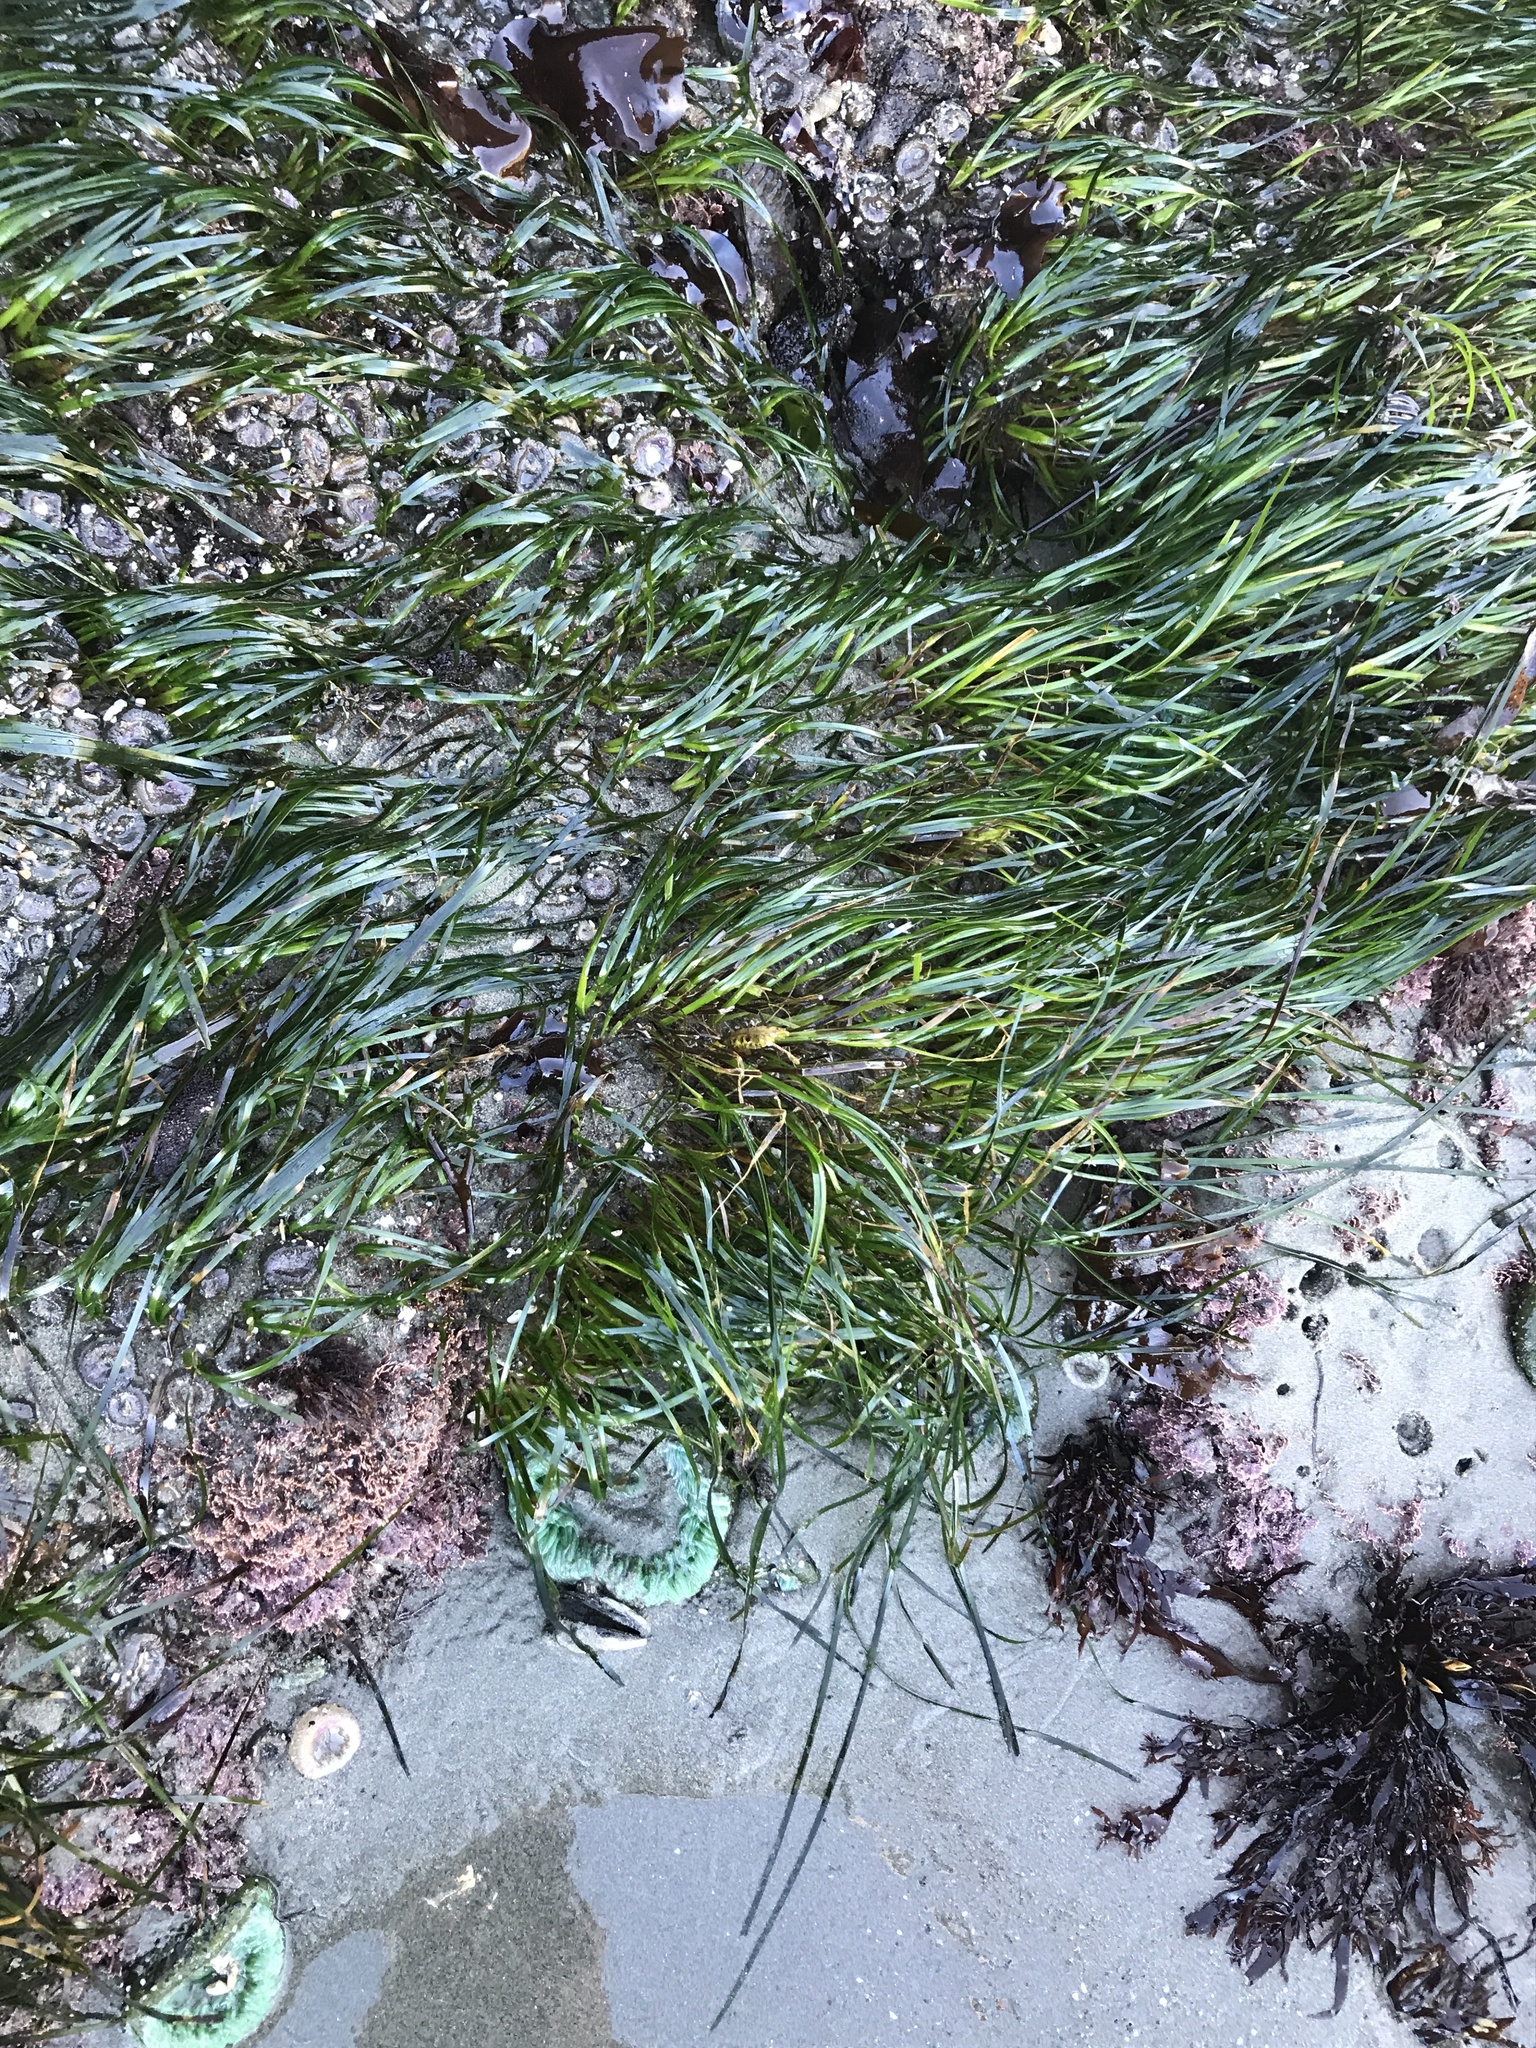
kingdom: Plantae
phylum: Tracheophyta
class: Liliopsida
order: Alismatales
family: Zosteraceae
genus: Phyllospadix
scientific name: Phyllospadix scouleri
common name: Species code: ps
